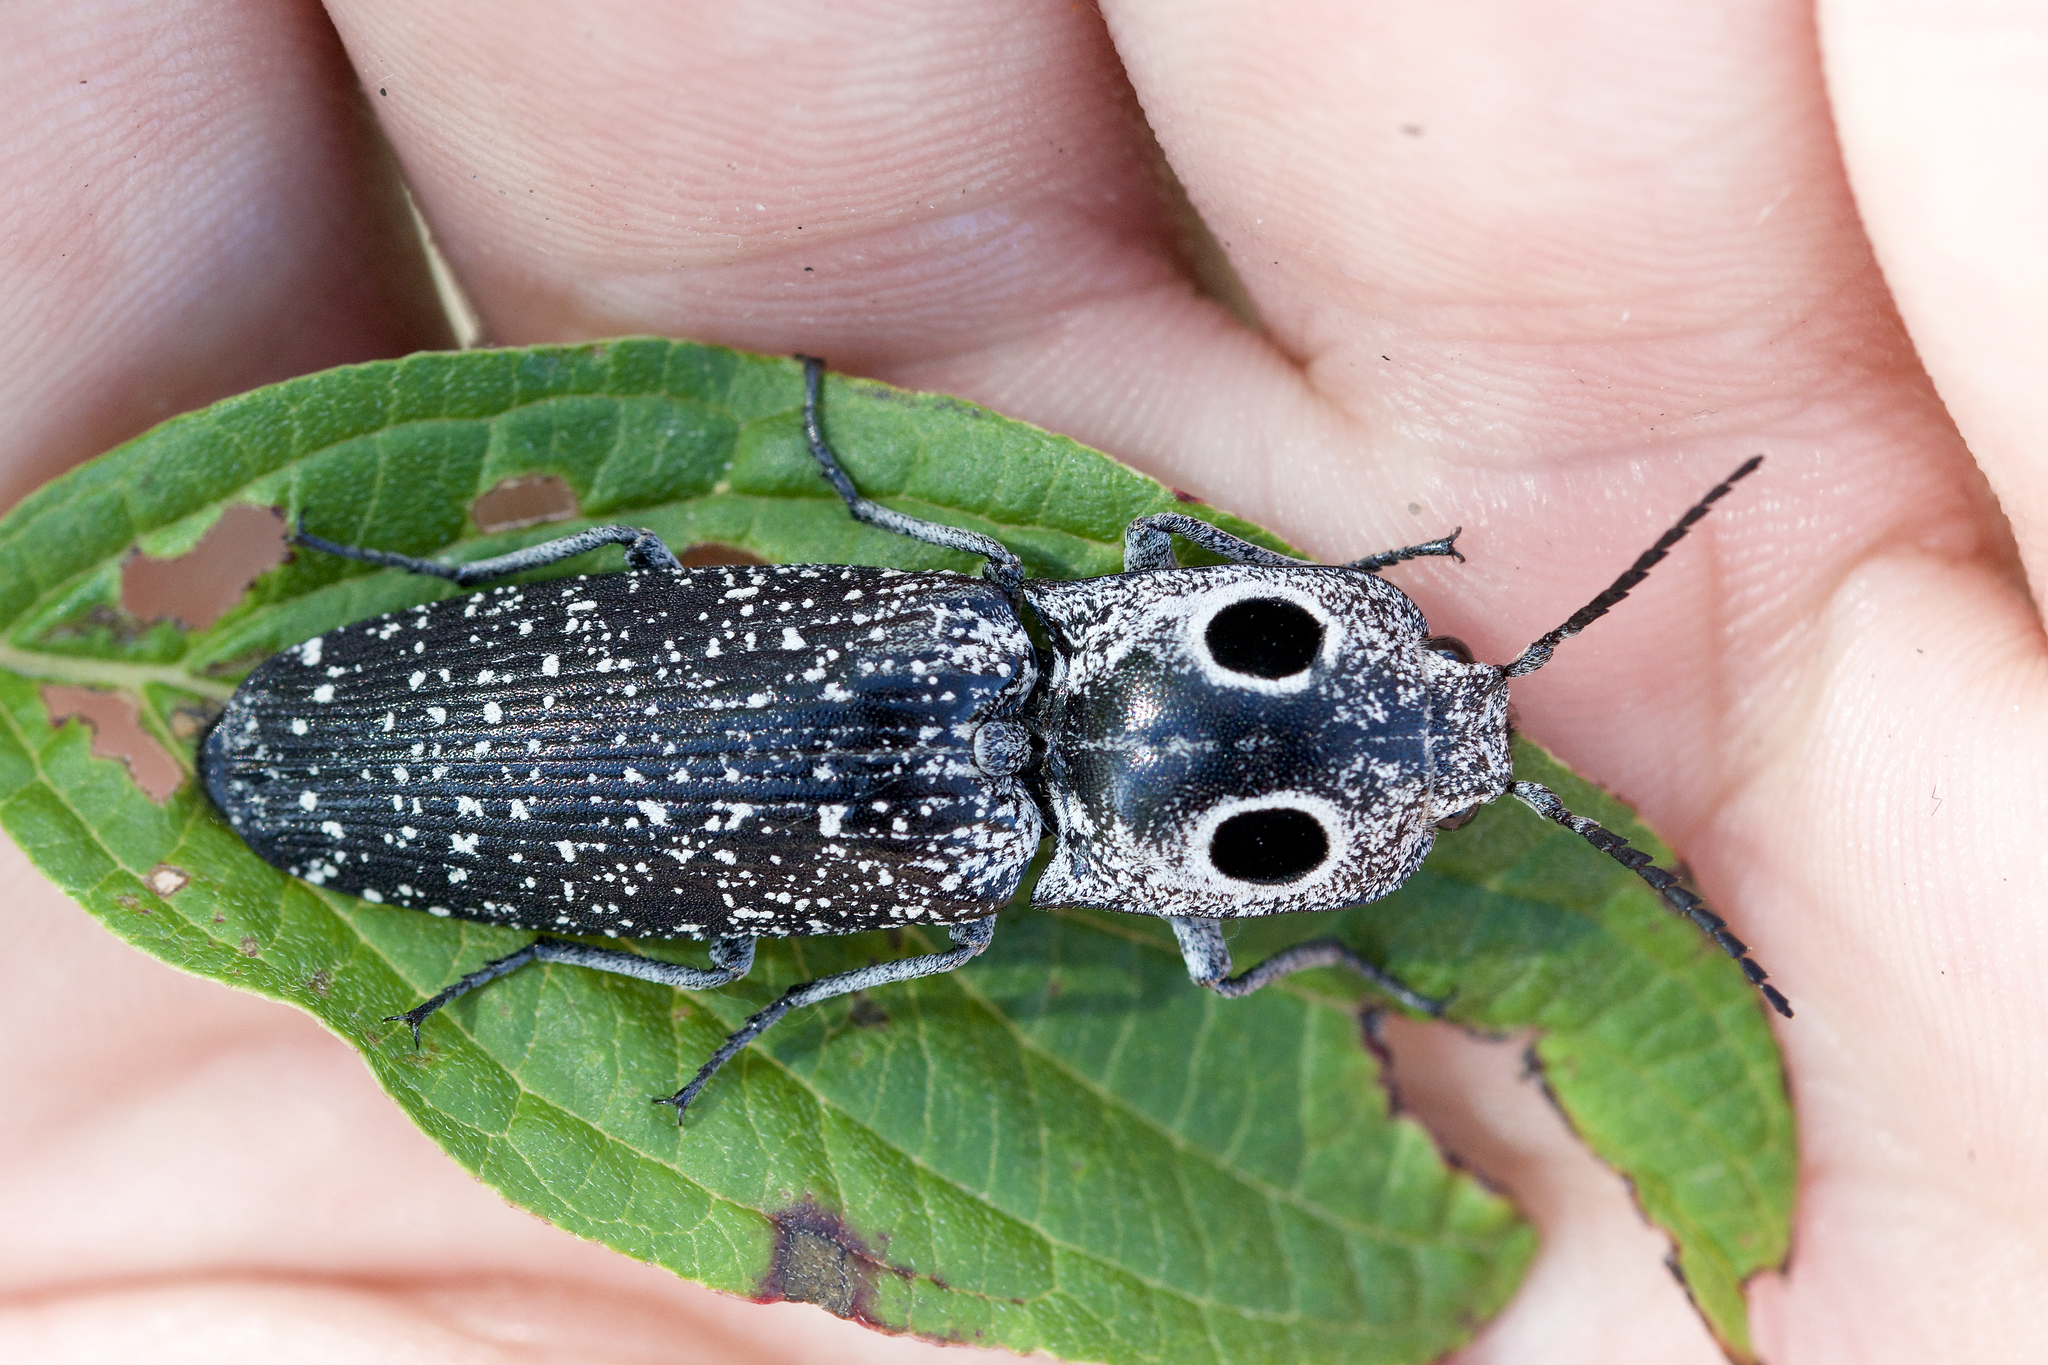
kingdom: Animalia
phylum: Arthropoda
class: Insecta
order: Coleoptera
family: Elateridae
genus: Alaus
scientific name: Alaus oculatus
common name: Eastern eyed click beetle
